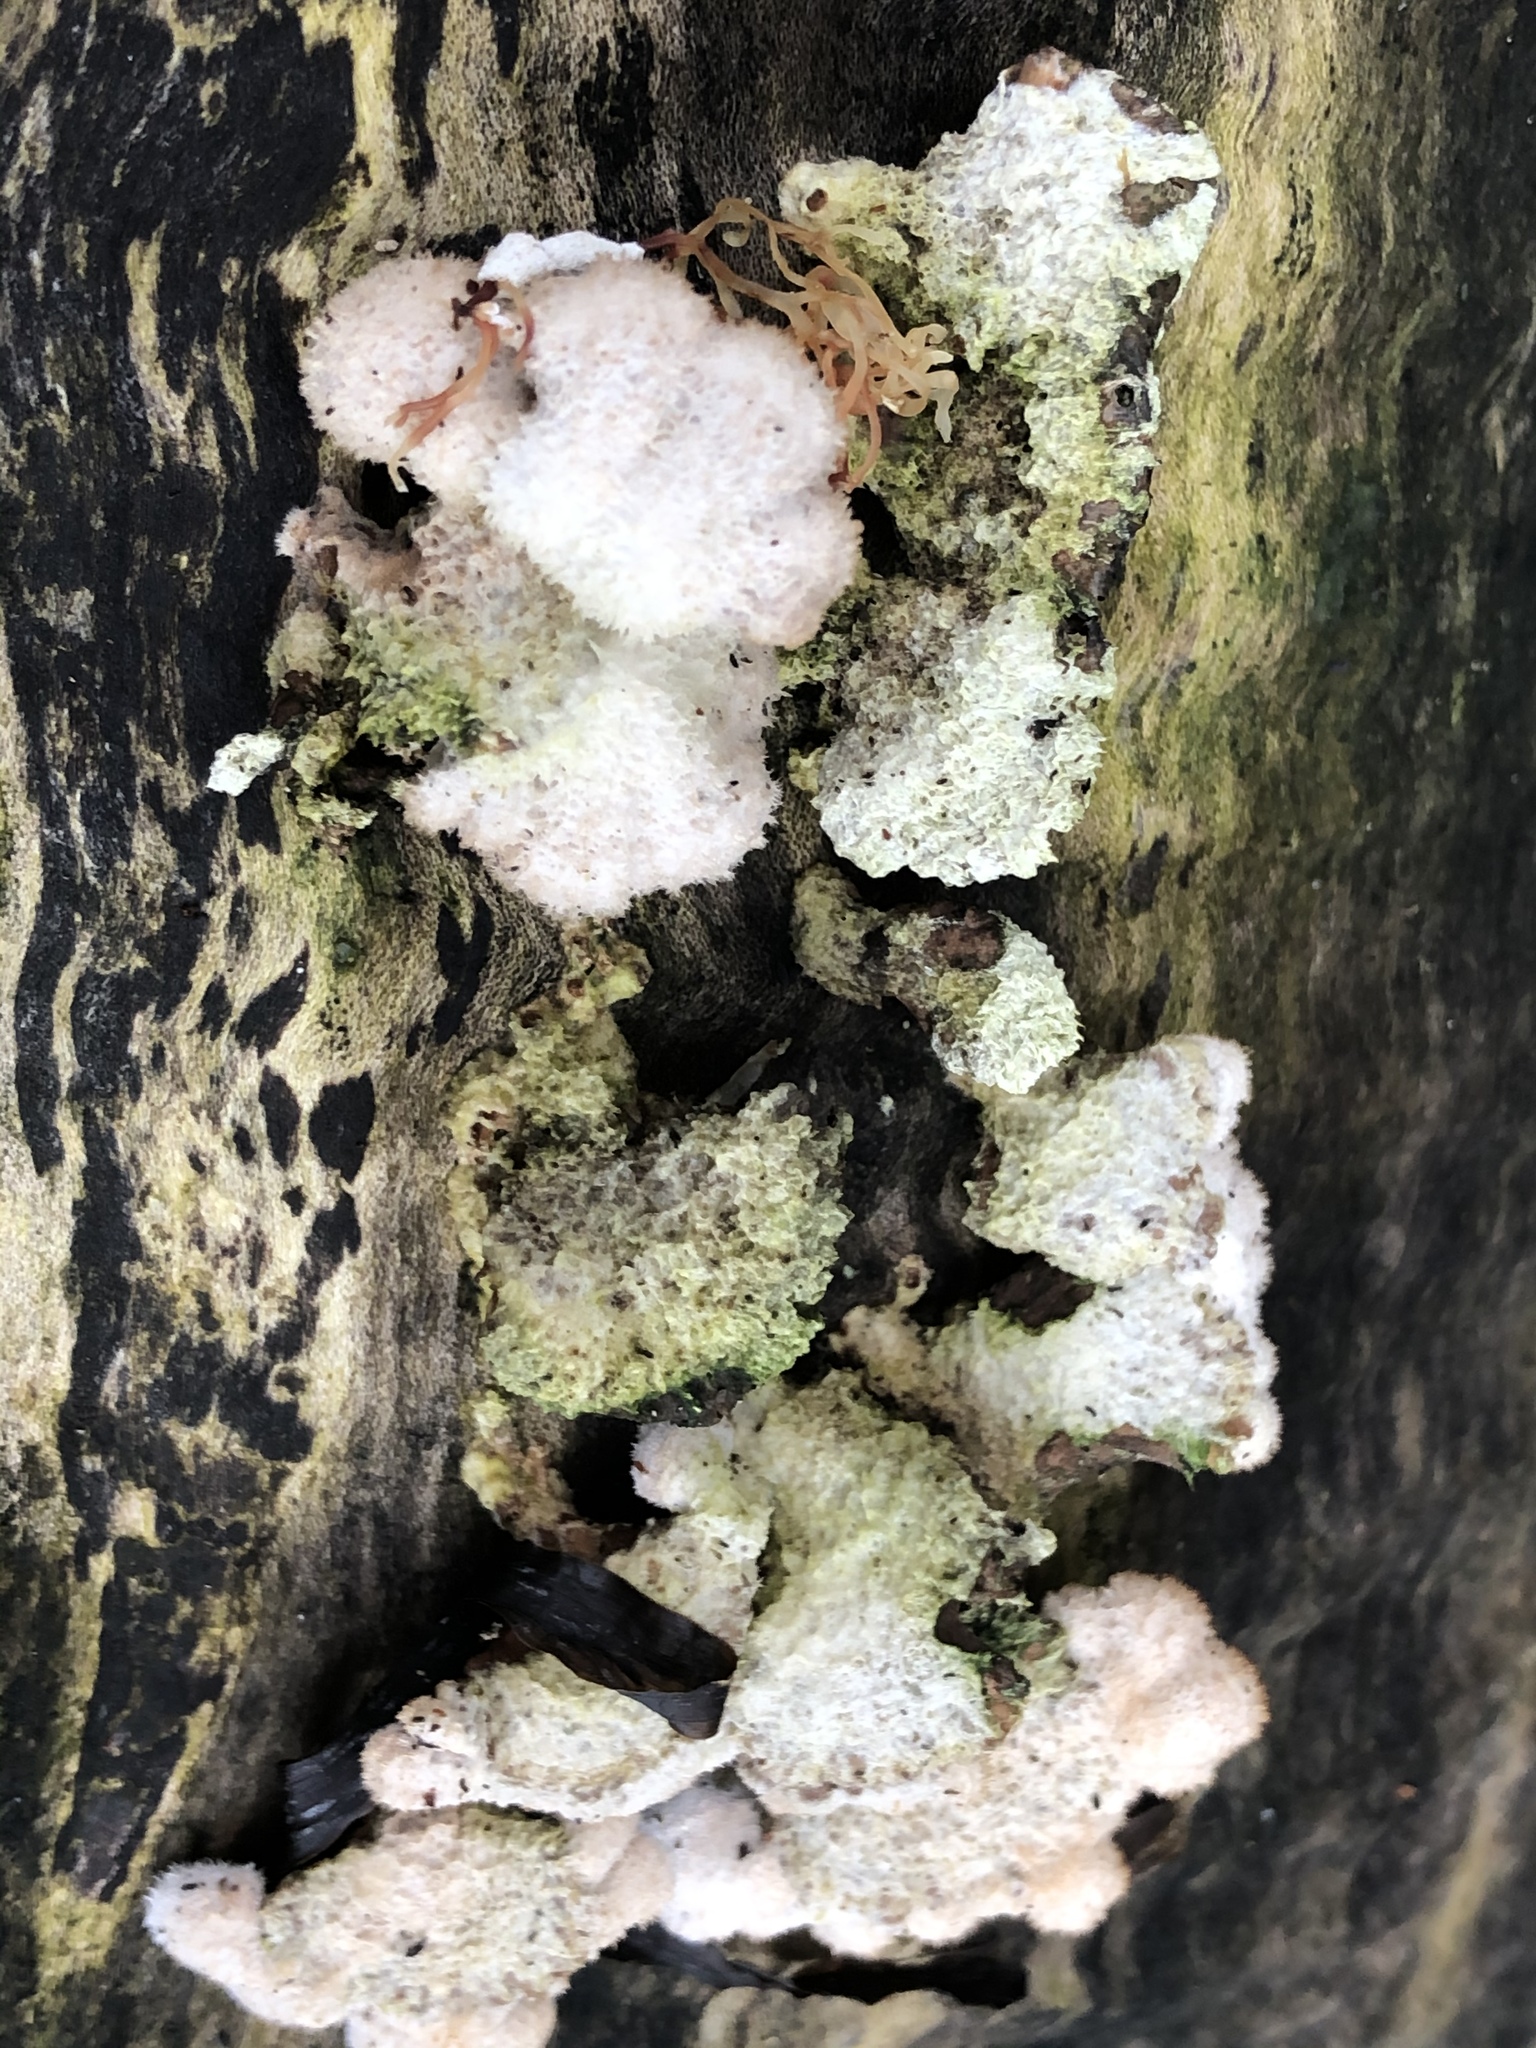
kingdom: Fungi
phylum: Basidiomycota
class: Agaricomycetes
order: Agaricales
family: Schizophyllaceae
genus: Schizophyllum
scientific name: Schizophyllum commune
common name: Common porecrust
